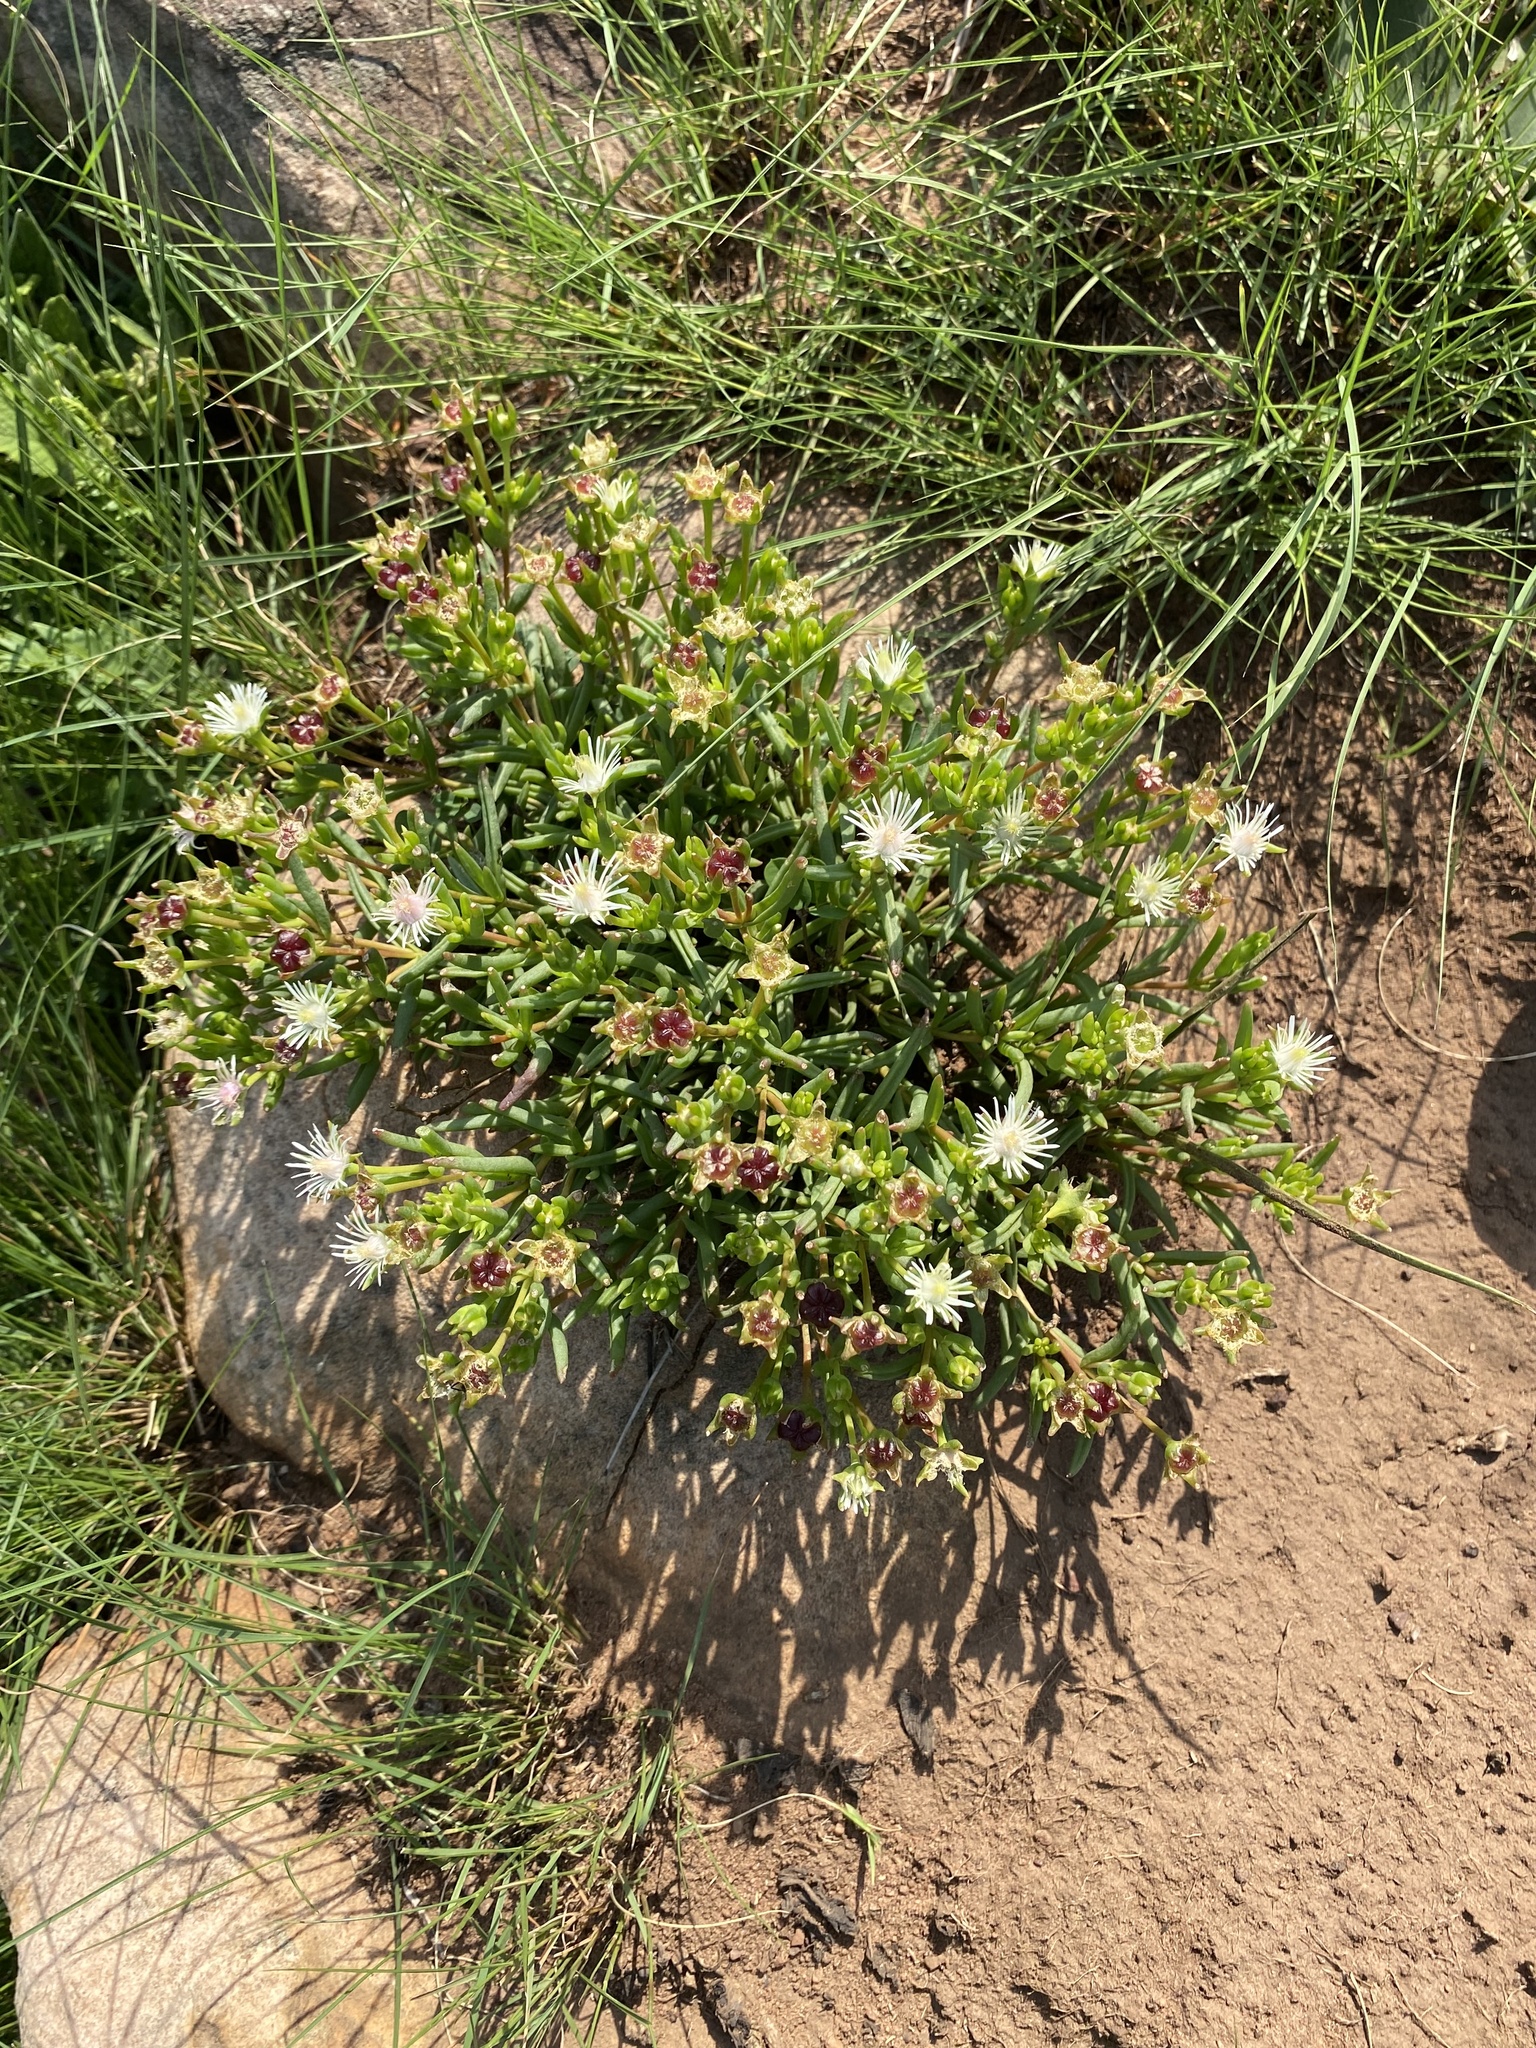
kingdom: Plantae
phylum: Tracheophyta
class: Magnoliopsida
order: Caryophyllales
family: Aizoaceae
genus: Delosperma
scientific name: Delosperma lineare
